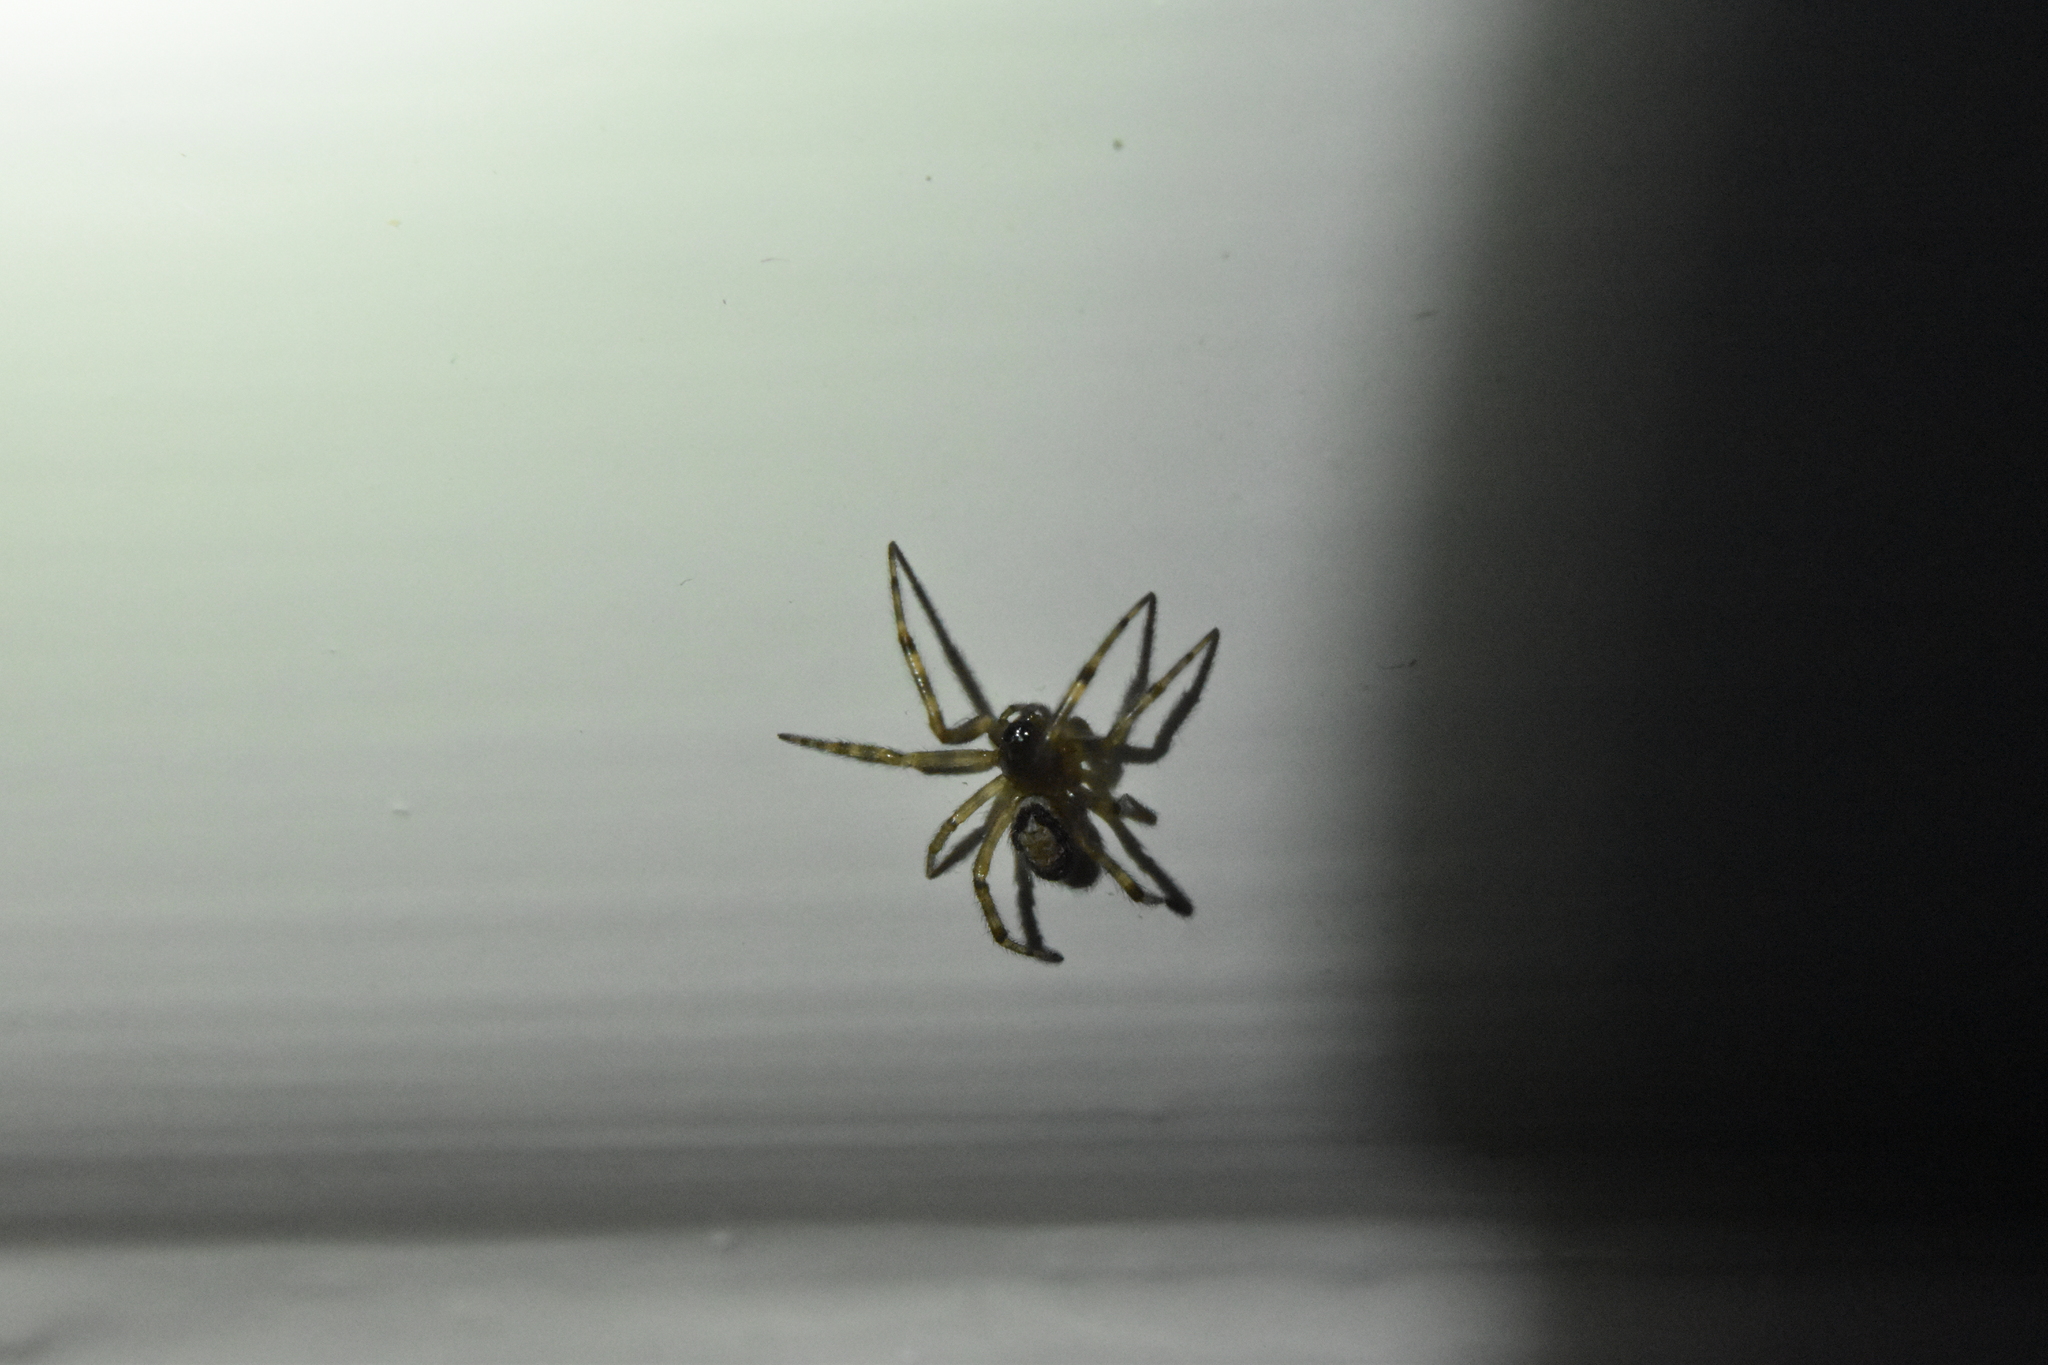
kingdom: Animalia
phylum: Arthropoda
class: Arachnida
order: Araneae
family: Theridiidae
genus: Steatoda
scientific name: Steatoda nobilis
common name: Cobweb weaver
